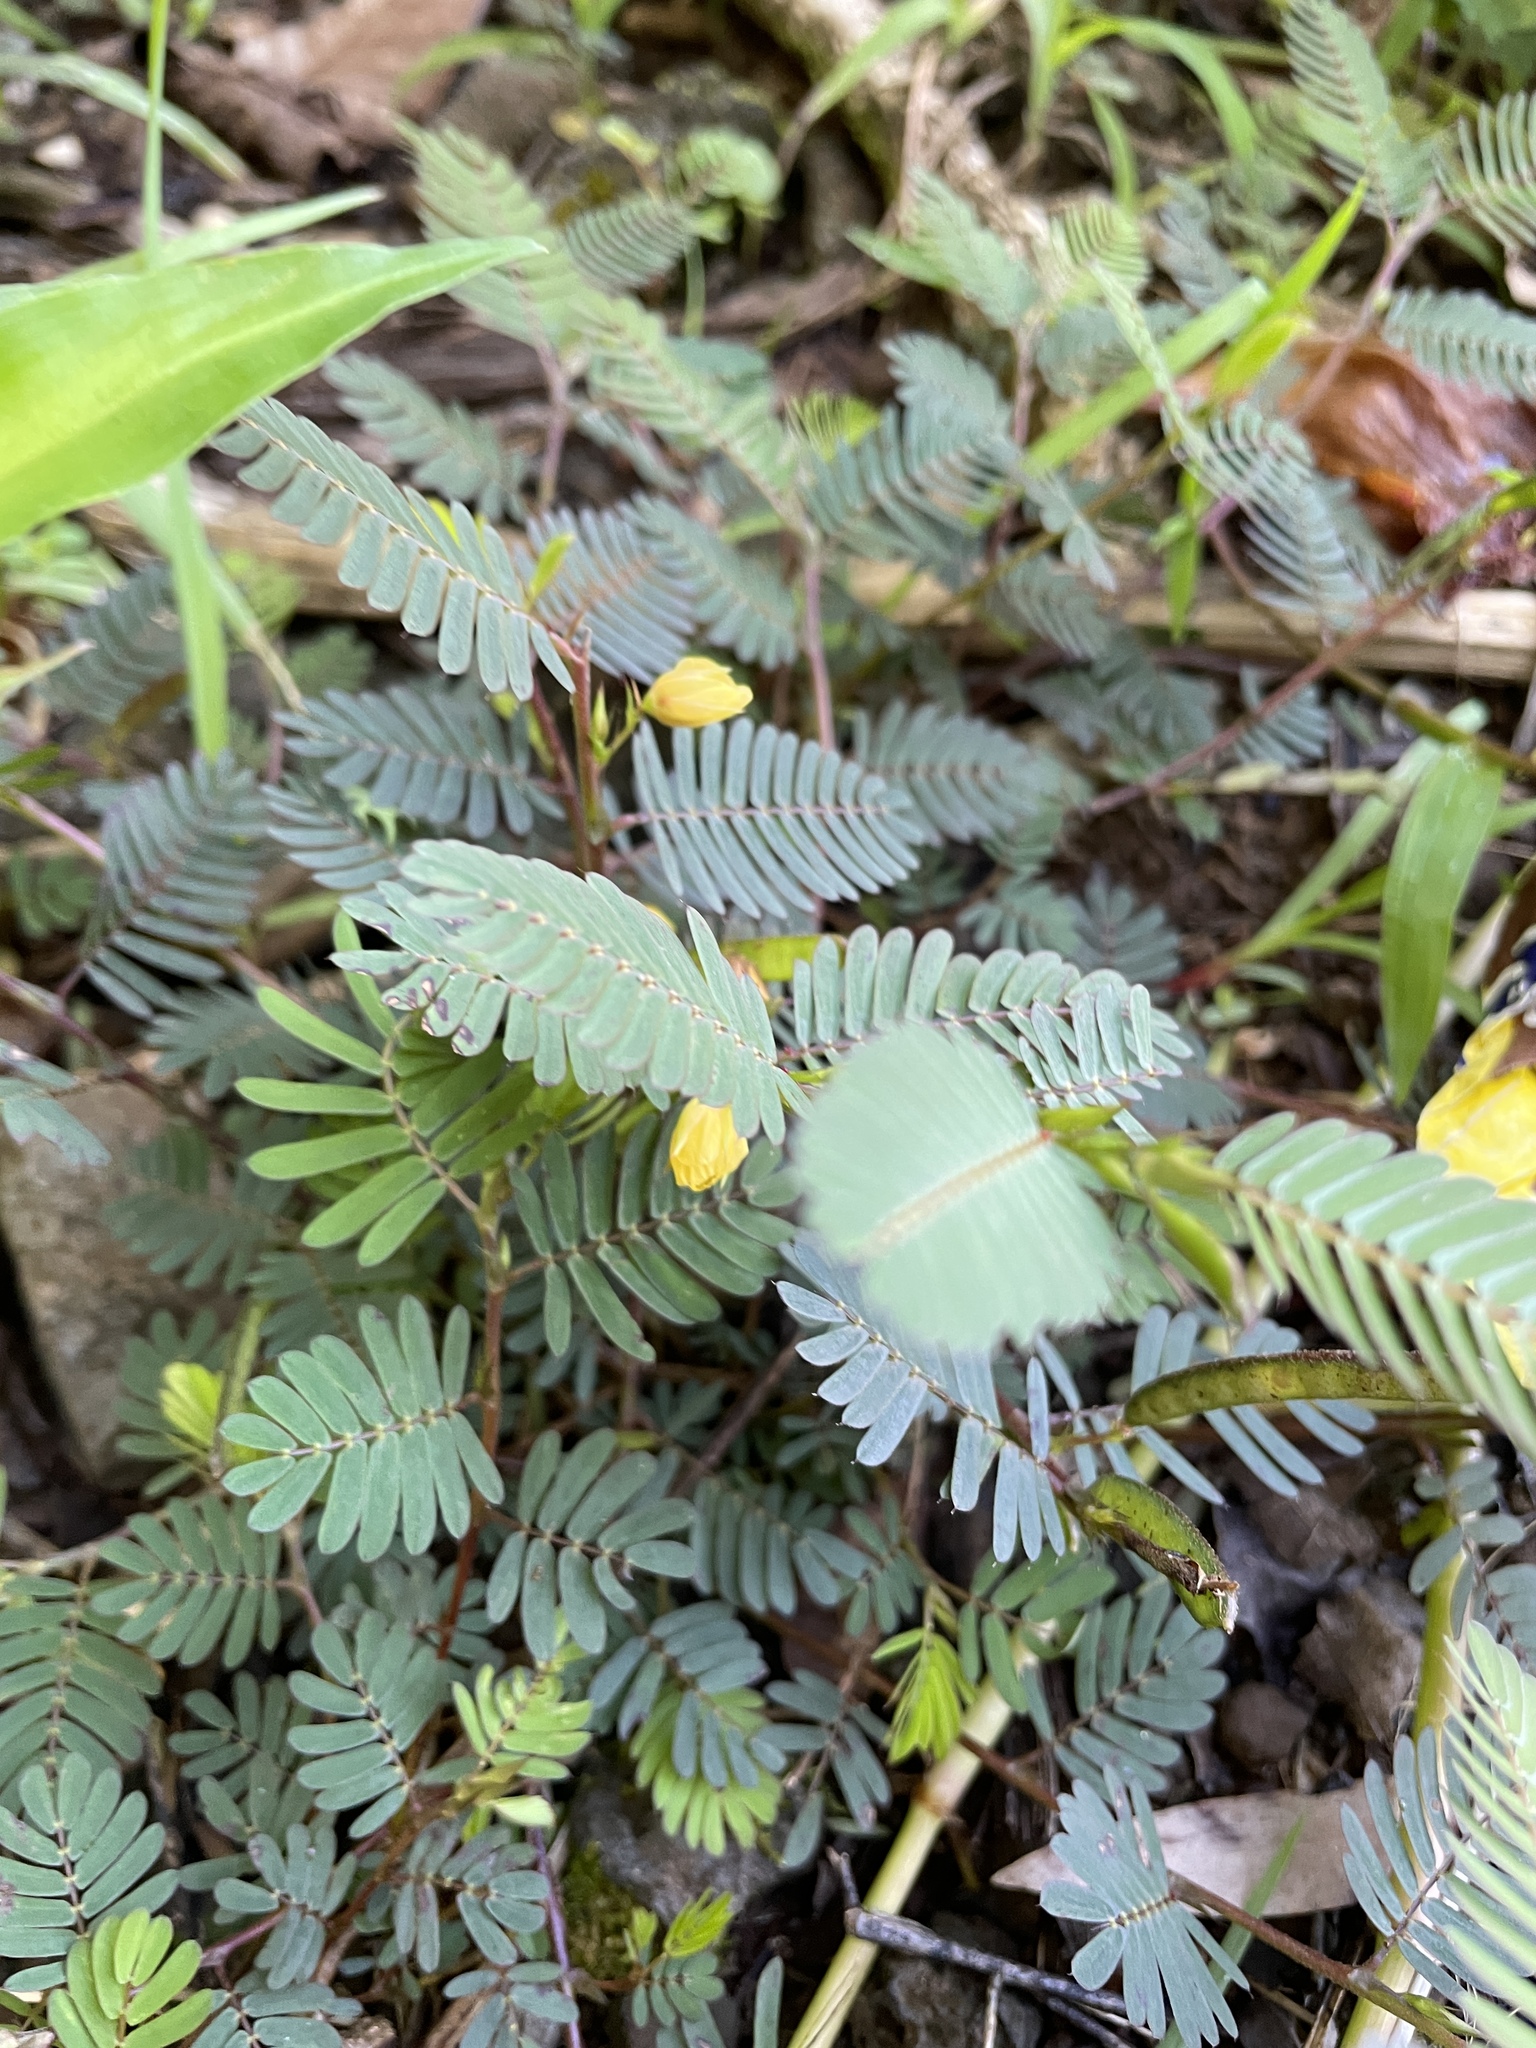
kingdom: Plantae
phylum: Tracheophyta
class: Magnoliopsida
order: Fabales
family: Fabaceae
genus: Chamaecrista
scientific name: Chamaecrista nictitans
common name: Sensitive cassia
